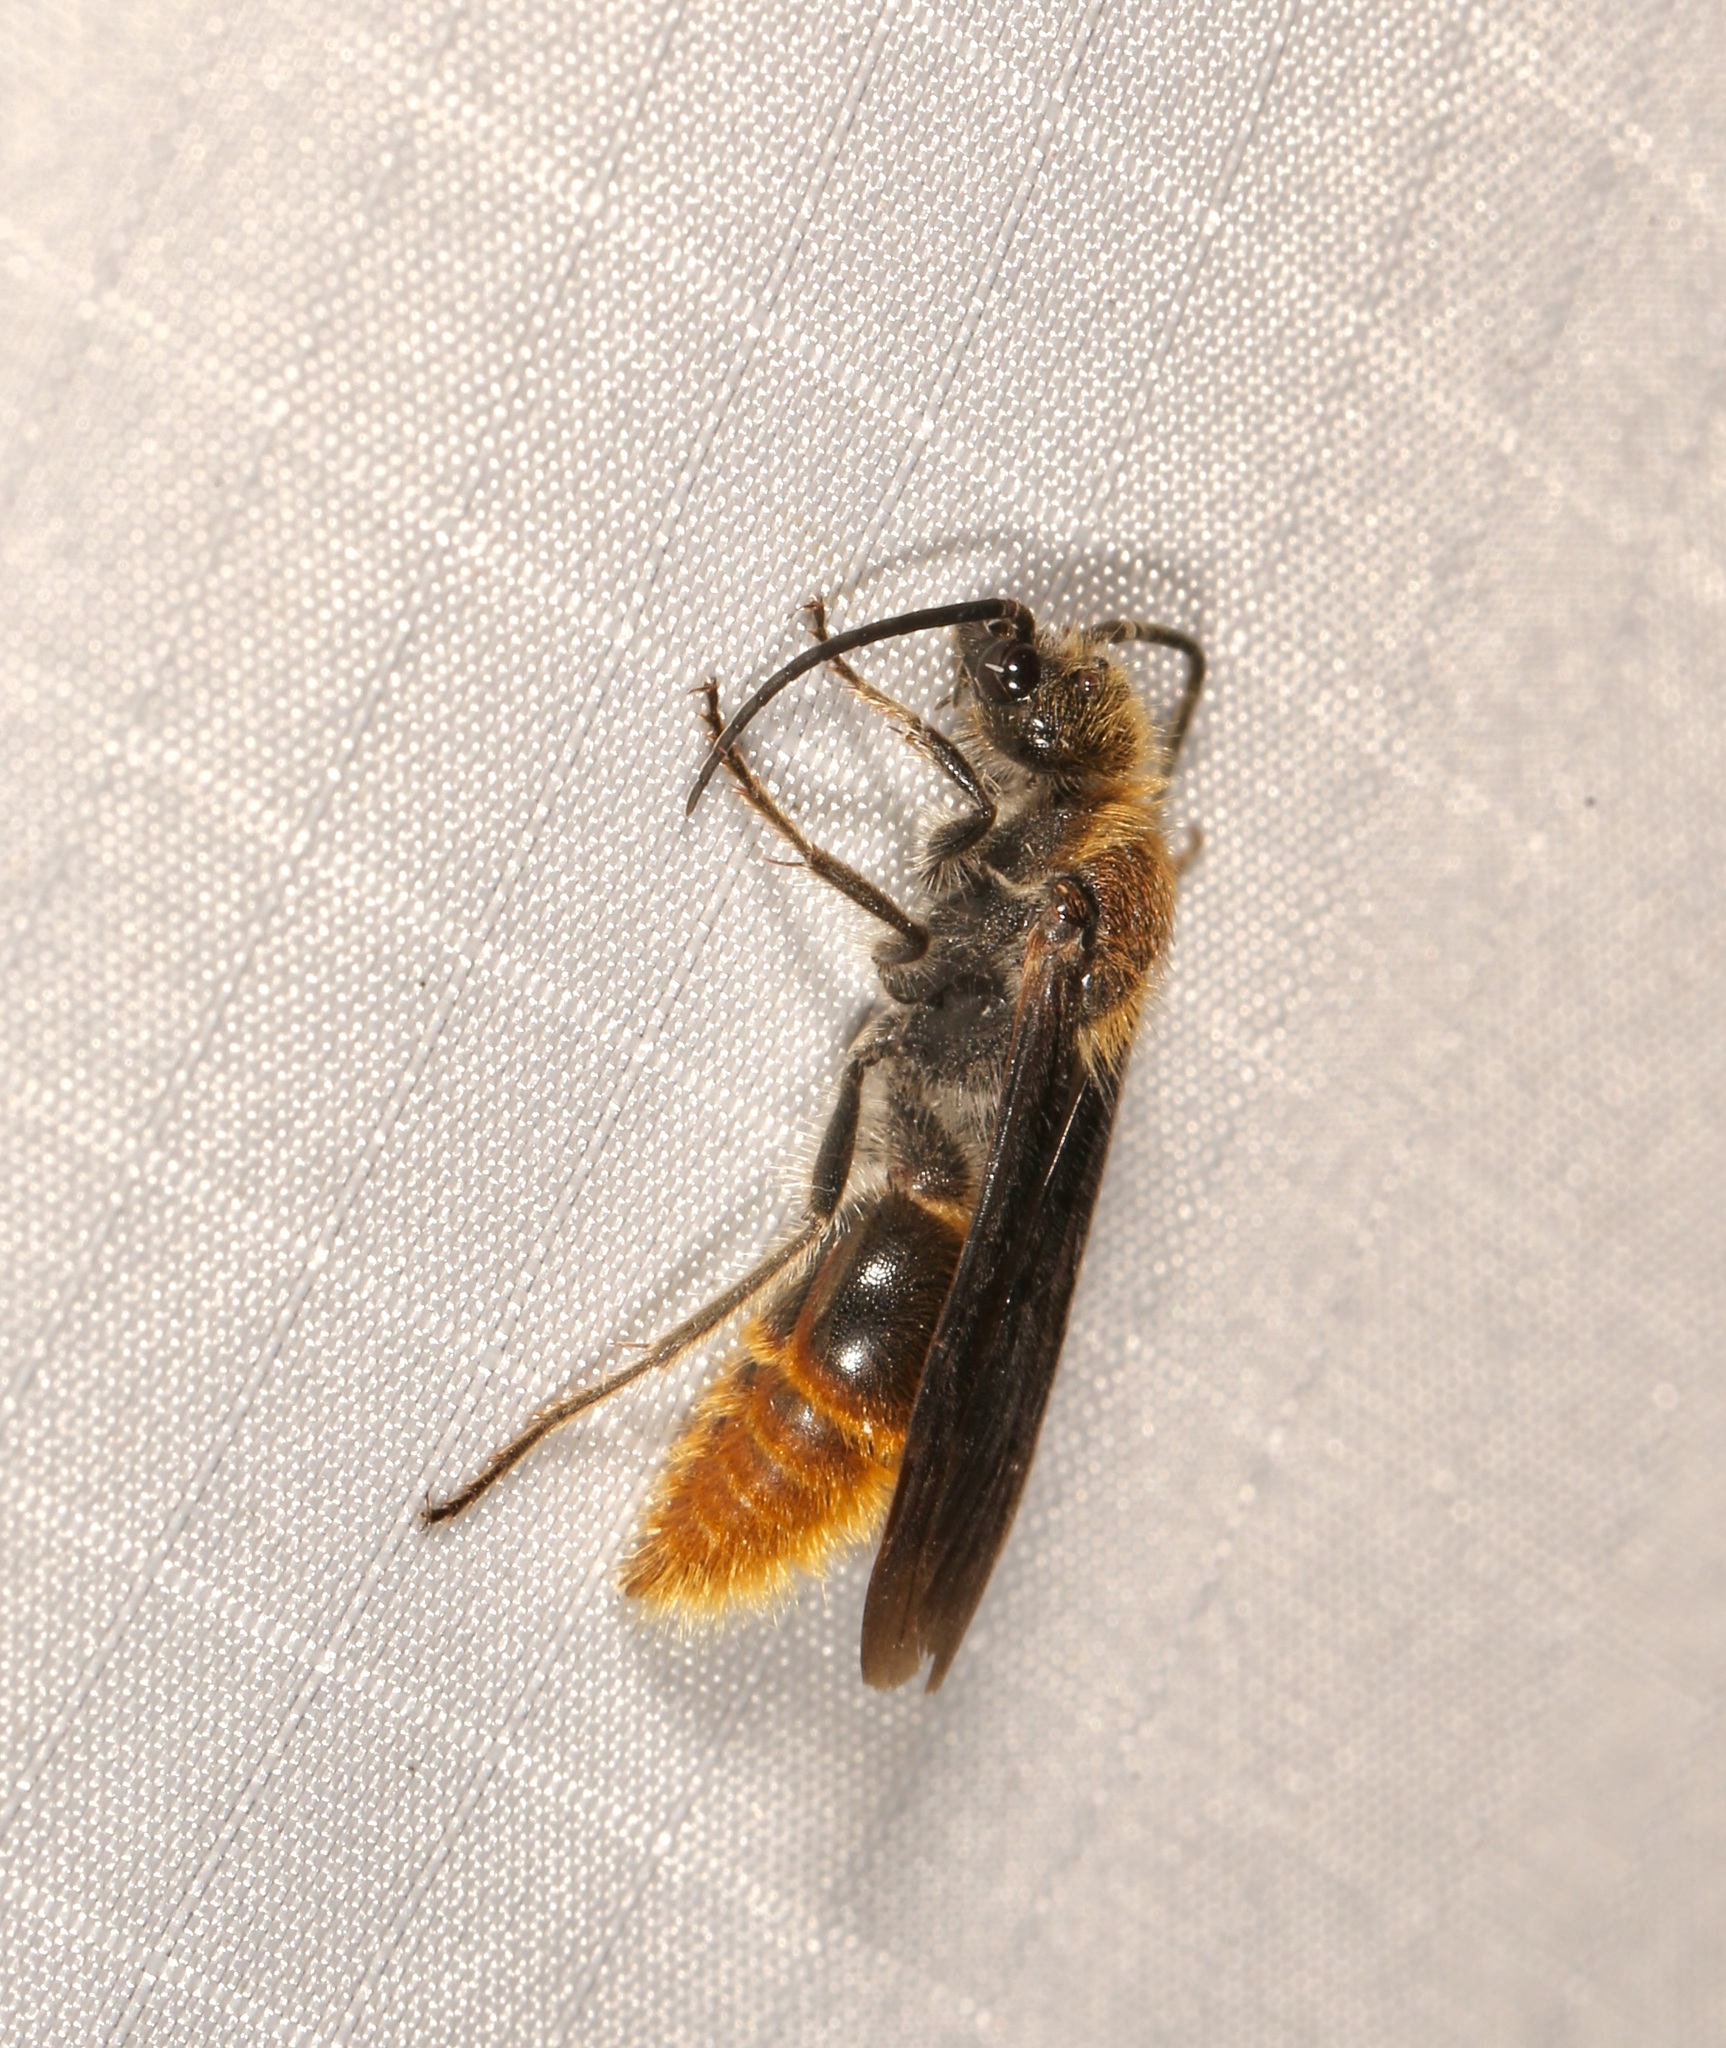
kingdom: Animalia
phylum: Arthropoda
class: Insecta
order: Hymenoptera
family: Mutillidae
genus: Sphaeropthalma
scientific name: Sphaeropthalma marpesia
